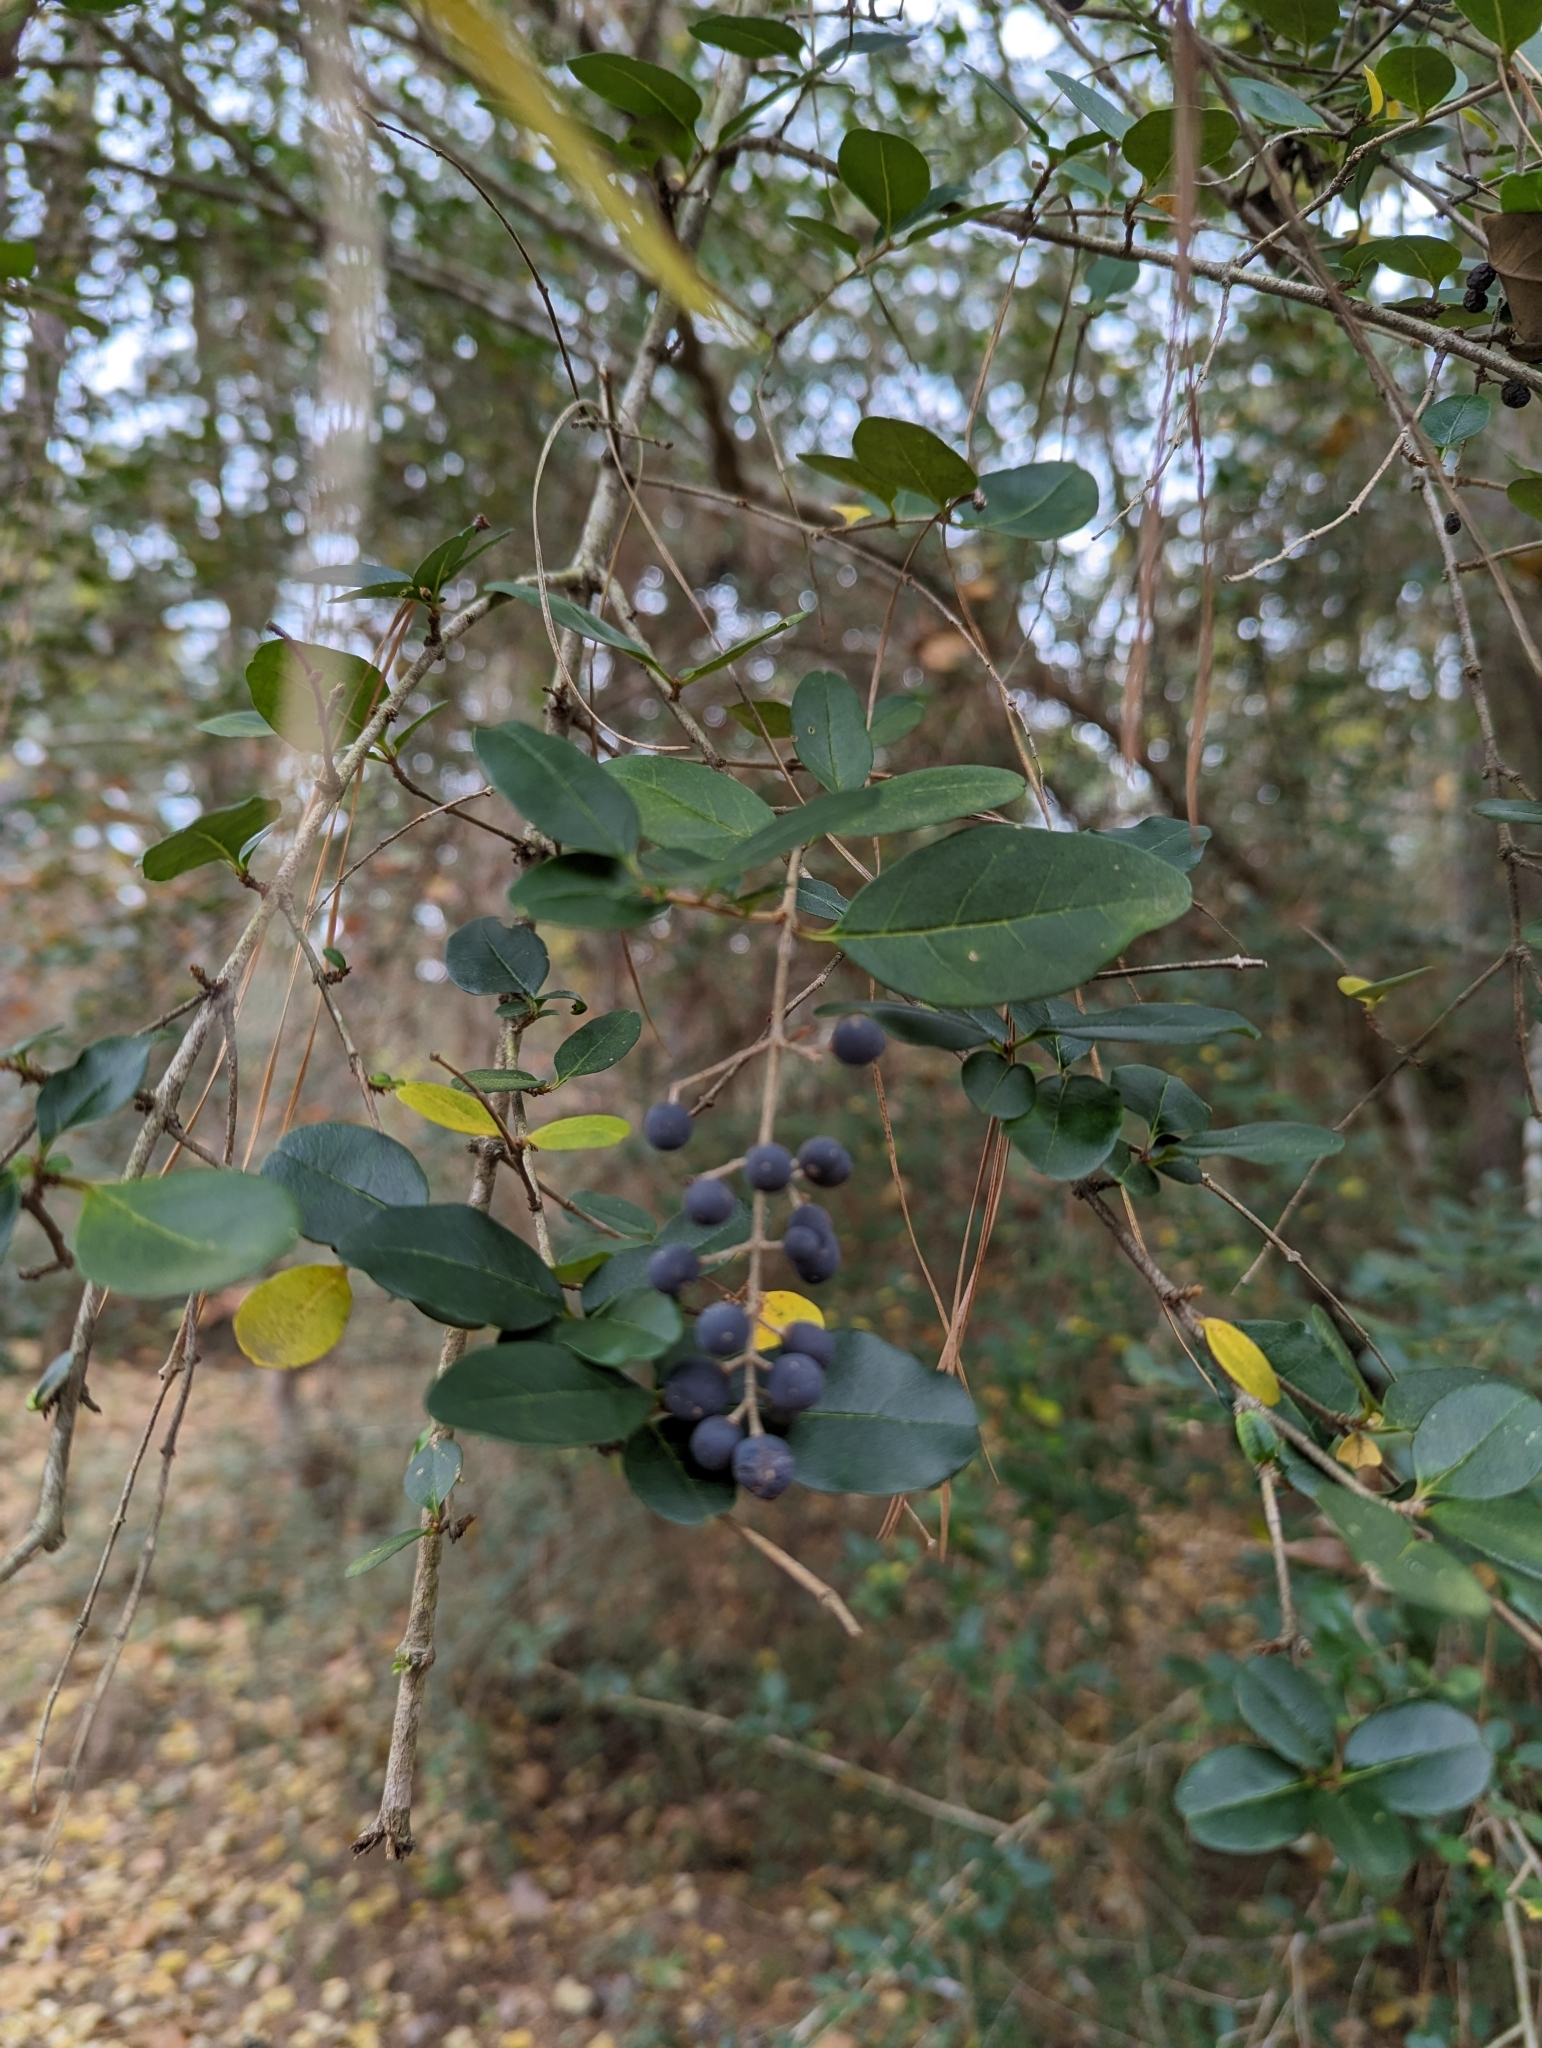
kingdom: Plantae
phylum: Tracheophyta
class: Magnoliopsida
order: Lamiales
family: Oleaceae
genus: Ligustrum
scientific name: Ligustrum sinense
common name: Chinese privet
